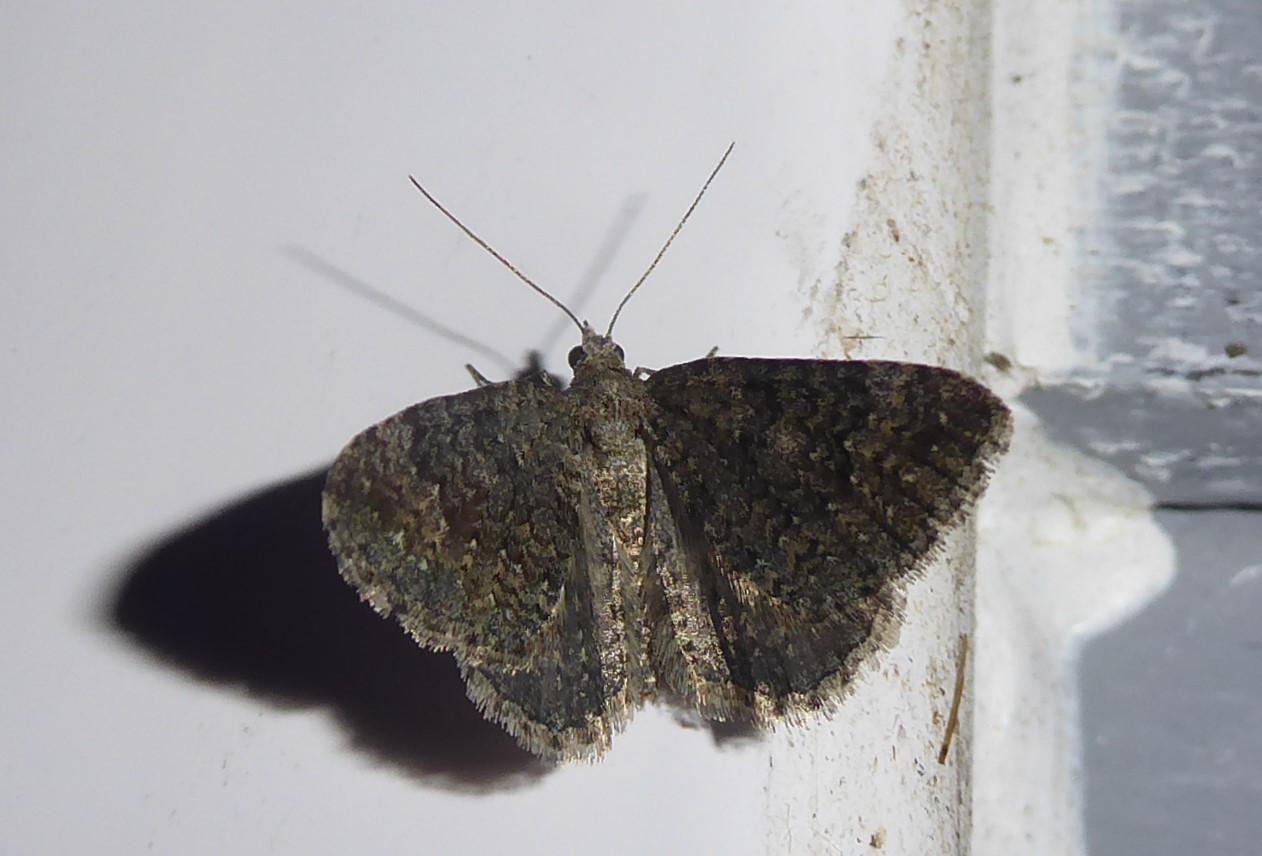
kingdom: Animalia
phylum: Arthropoda
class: Insecta
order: Lepidoptera
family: Geometridae
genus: Helastia
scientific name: Helastia corcularia
